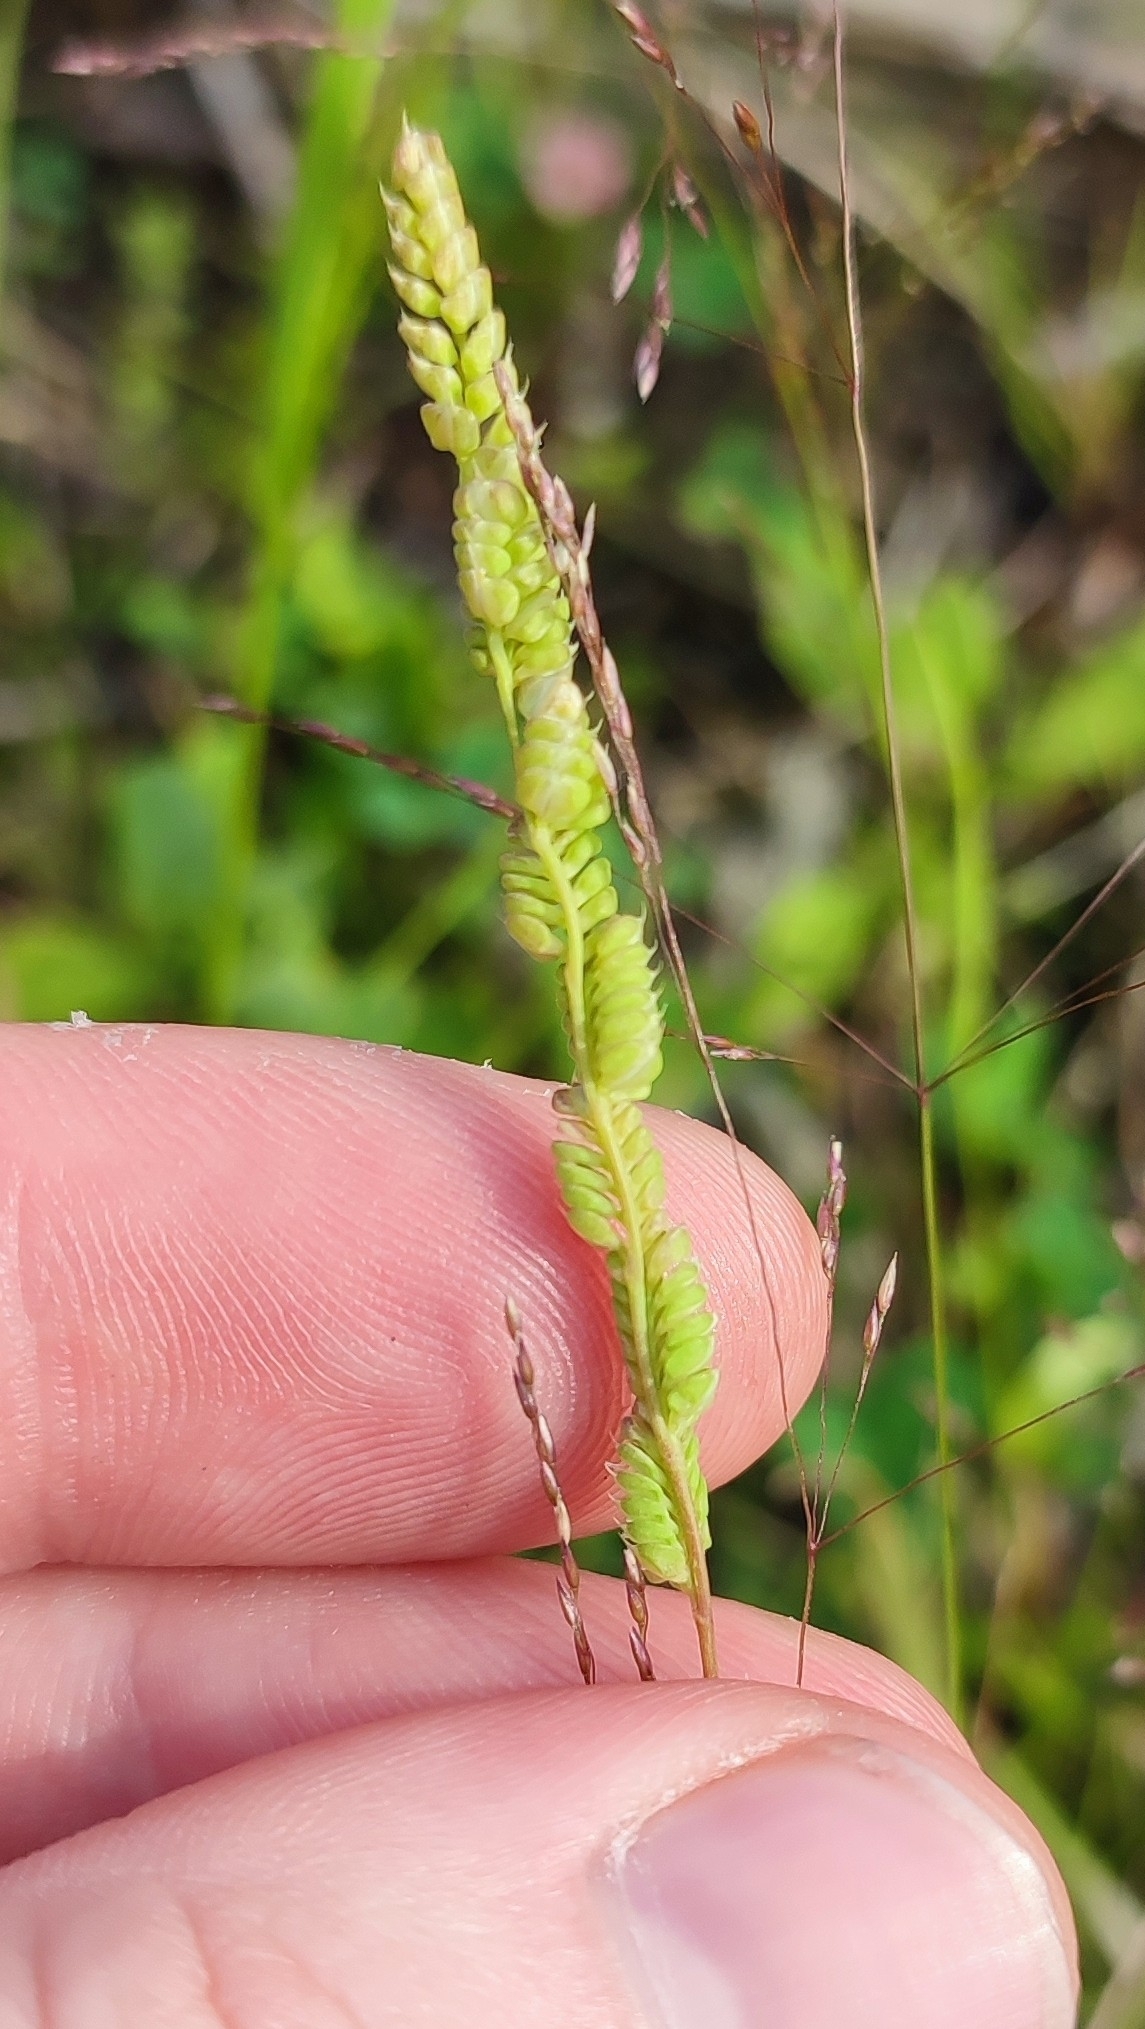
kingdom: Plantae
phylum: Tracheophyta
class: Liliopsida
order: Poales
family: Poaceae
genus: Beckmannia
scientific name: Beckmannia syzigachne
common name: American slough-grass
